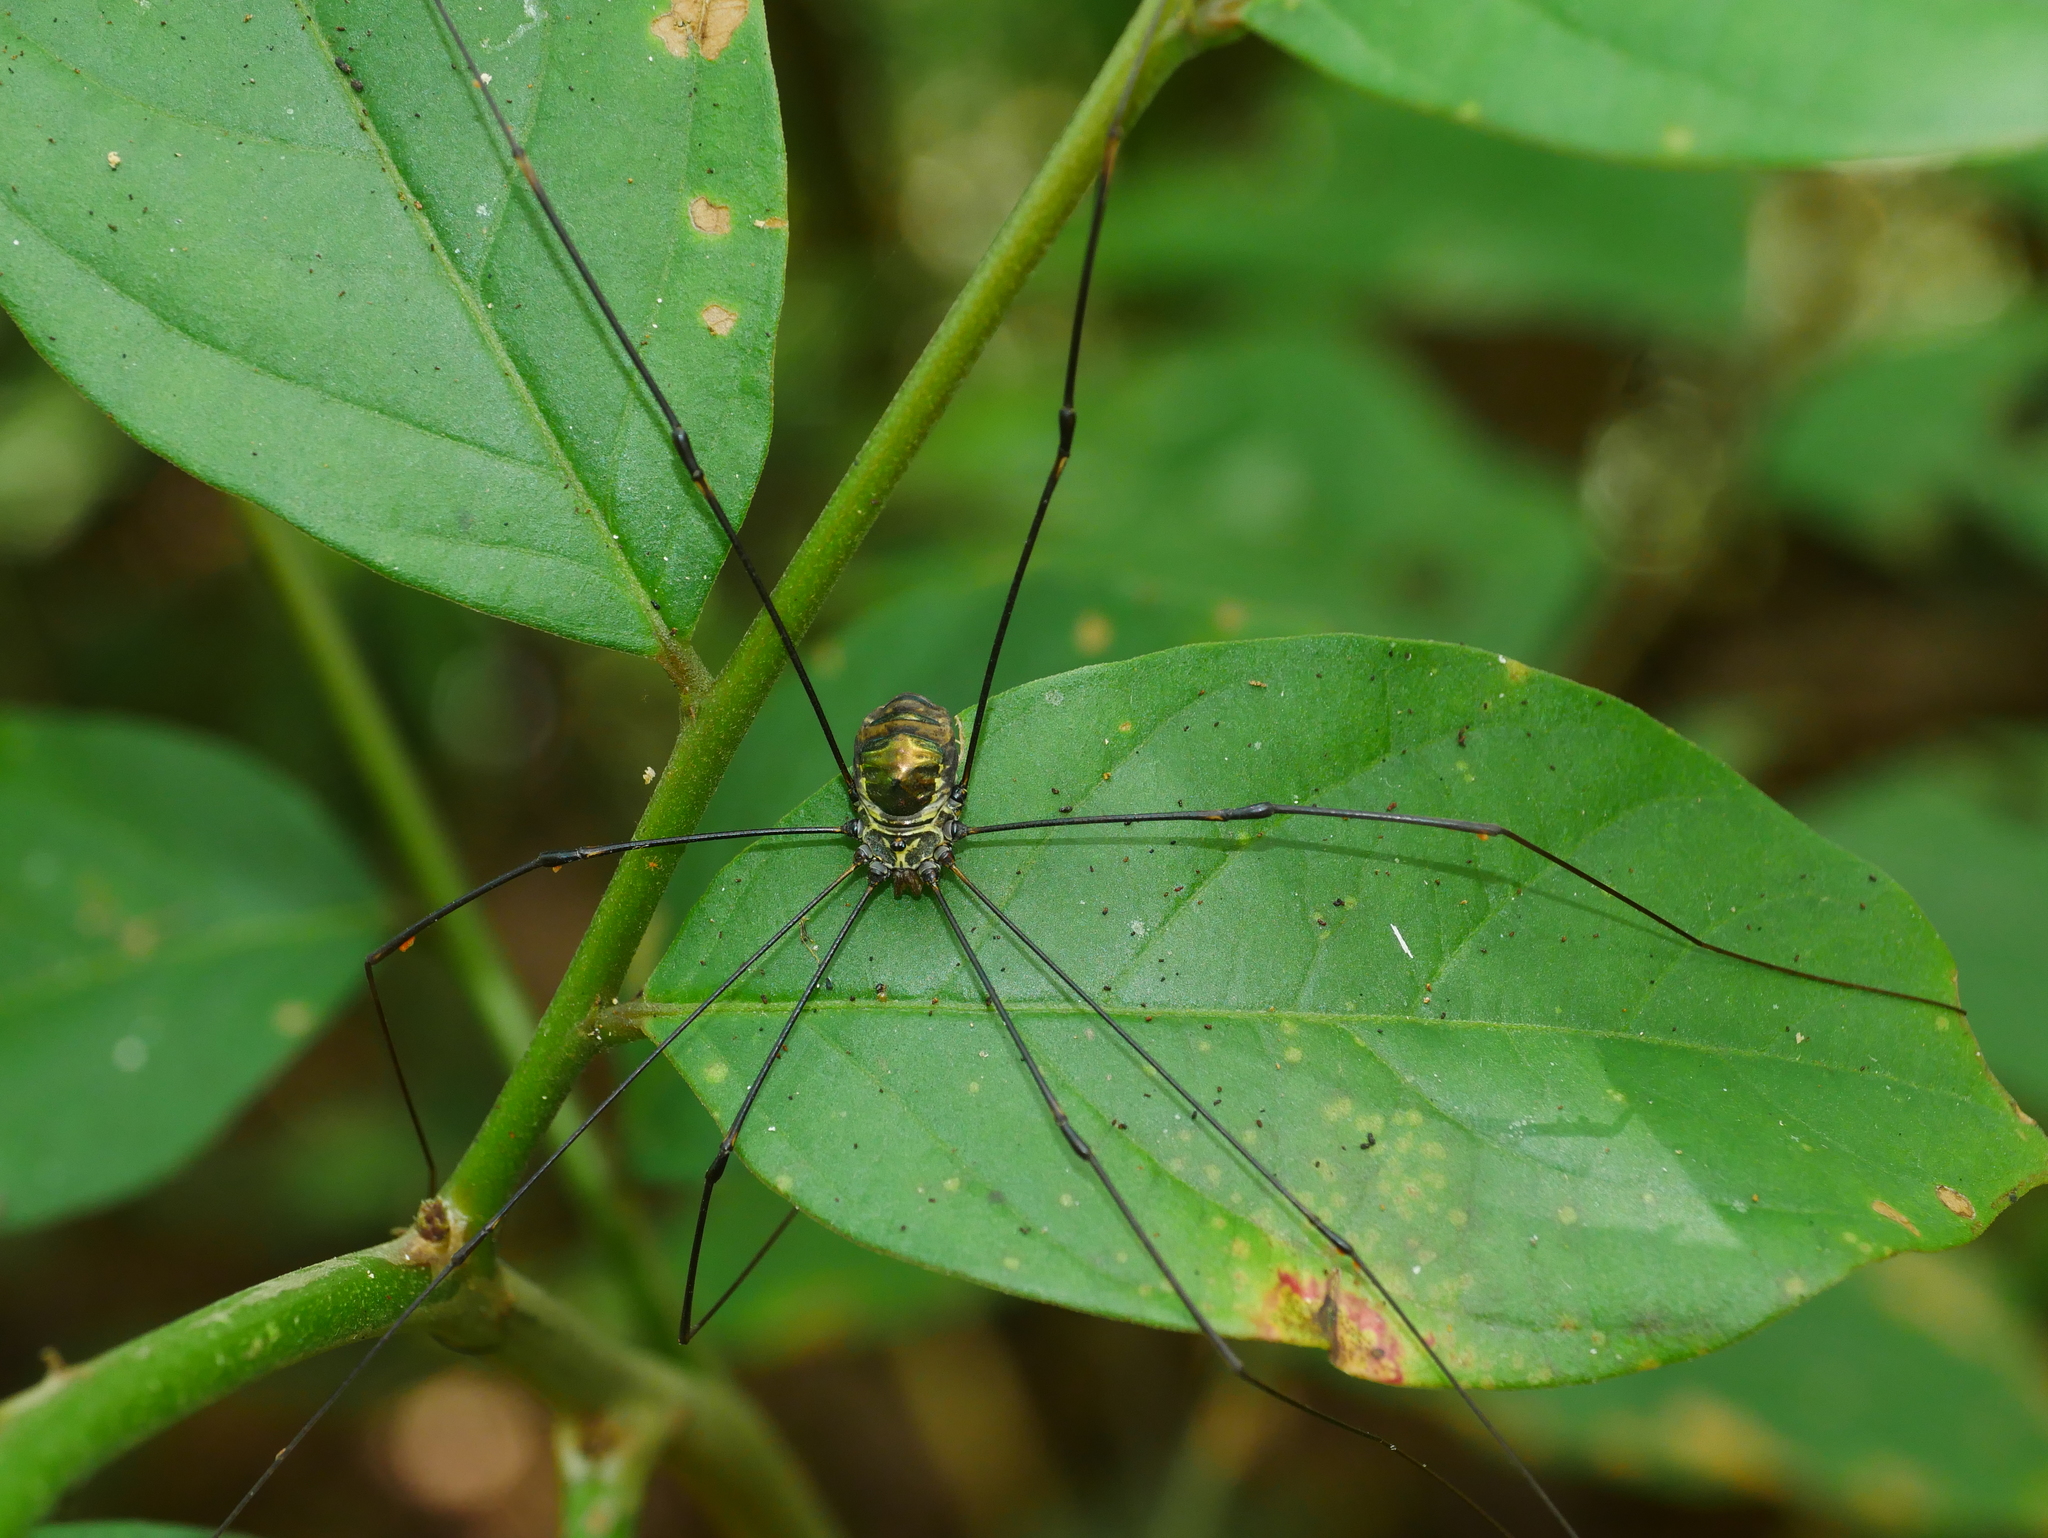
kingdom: Animalia
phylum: Arthropoda
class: Arachnida
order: Opiliones
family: Sclerosomatidae
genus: Pseudogagrella
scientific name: Pseudogagrella taiwana
